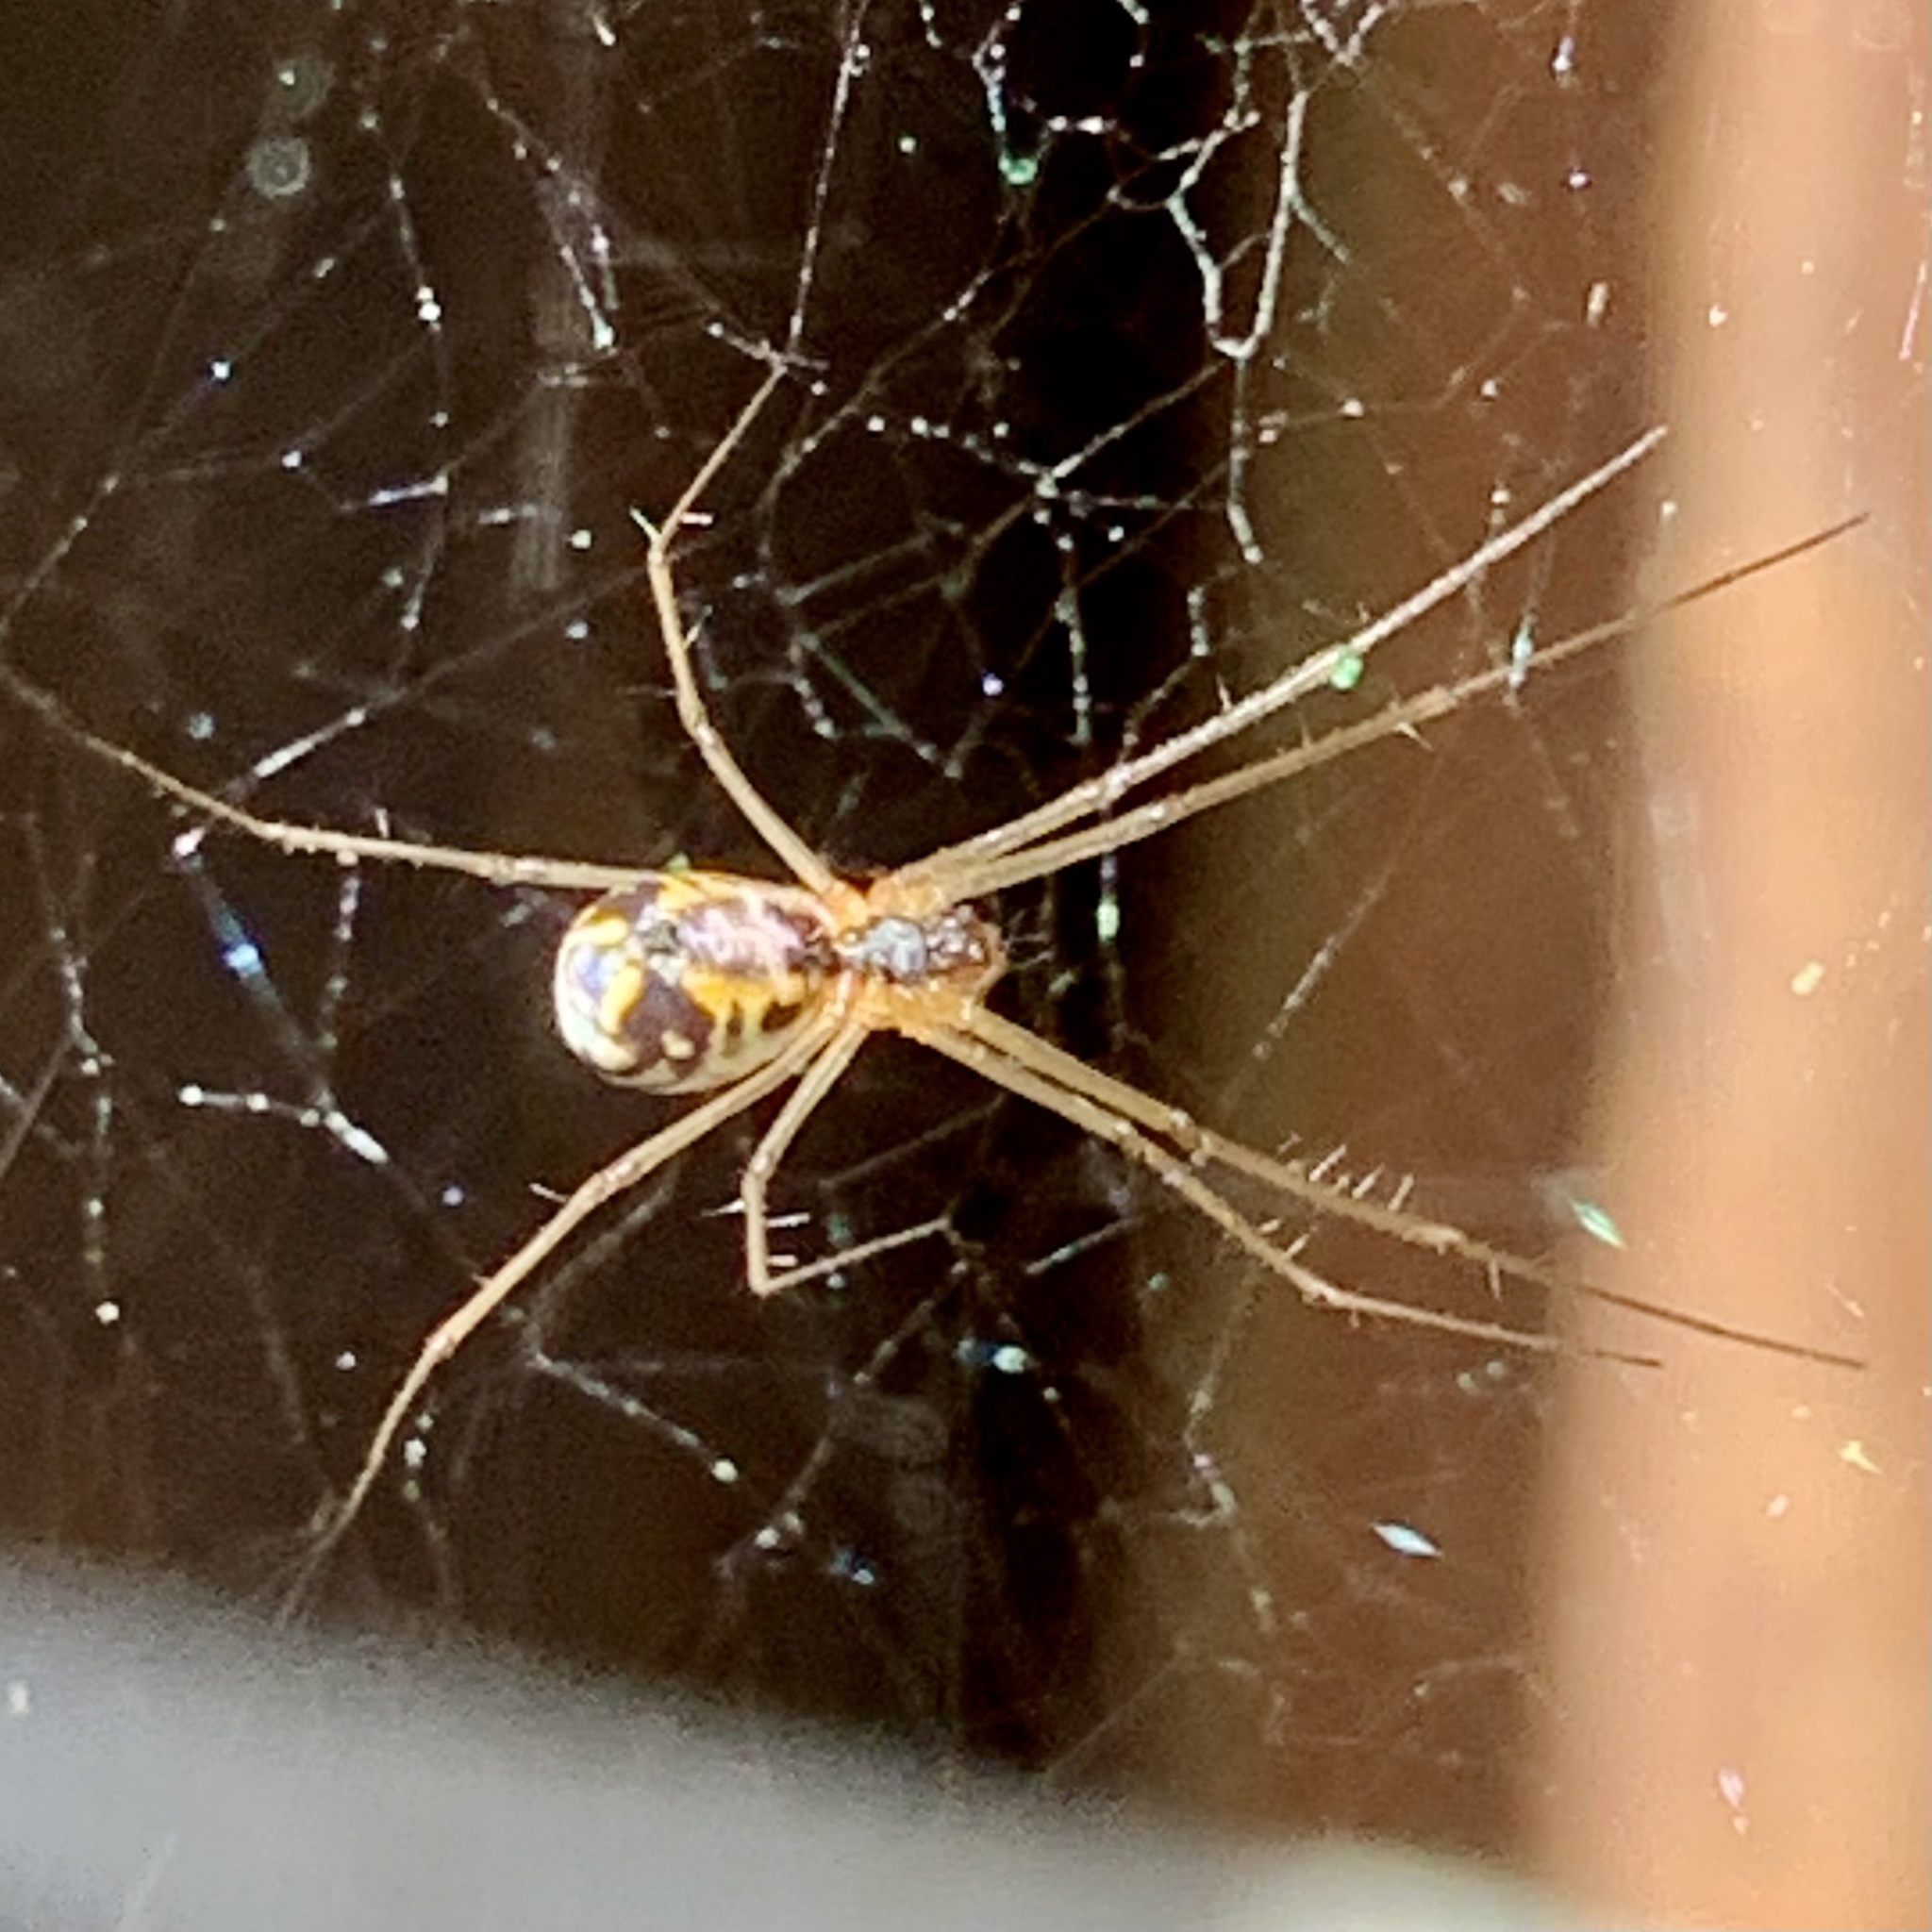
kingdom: Animalia
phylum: Arthropoda
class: Arachnida
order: Araneae
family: Linyphiidae
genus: Neriene
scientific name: Neriene radiata
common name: Filmy dome spider
